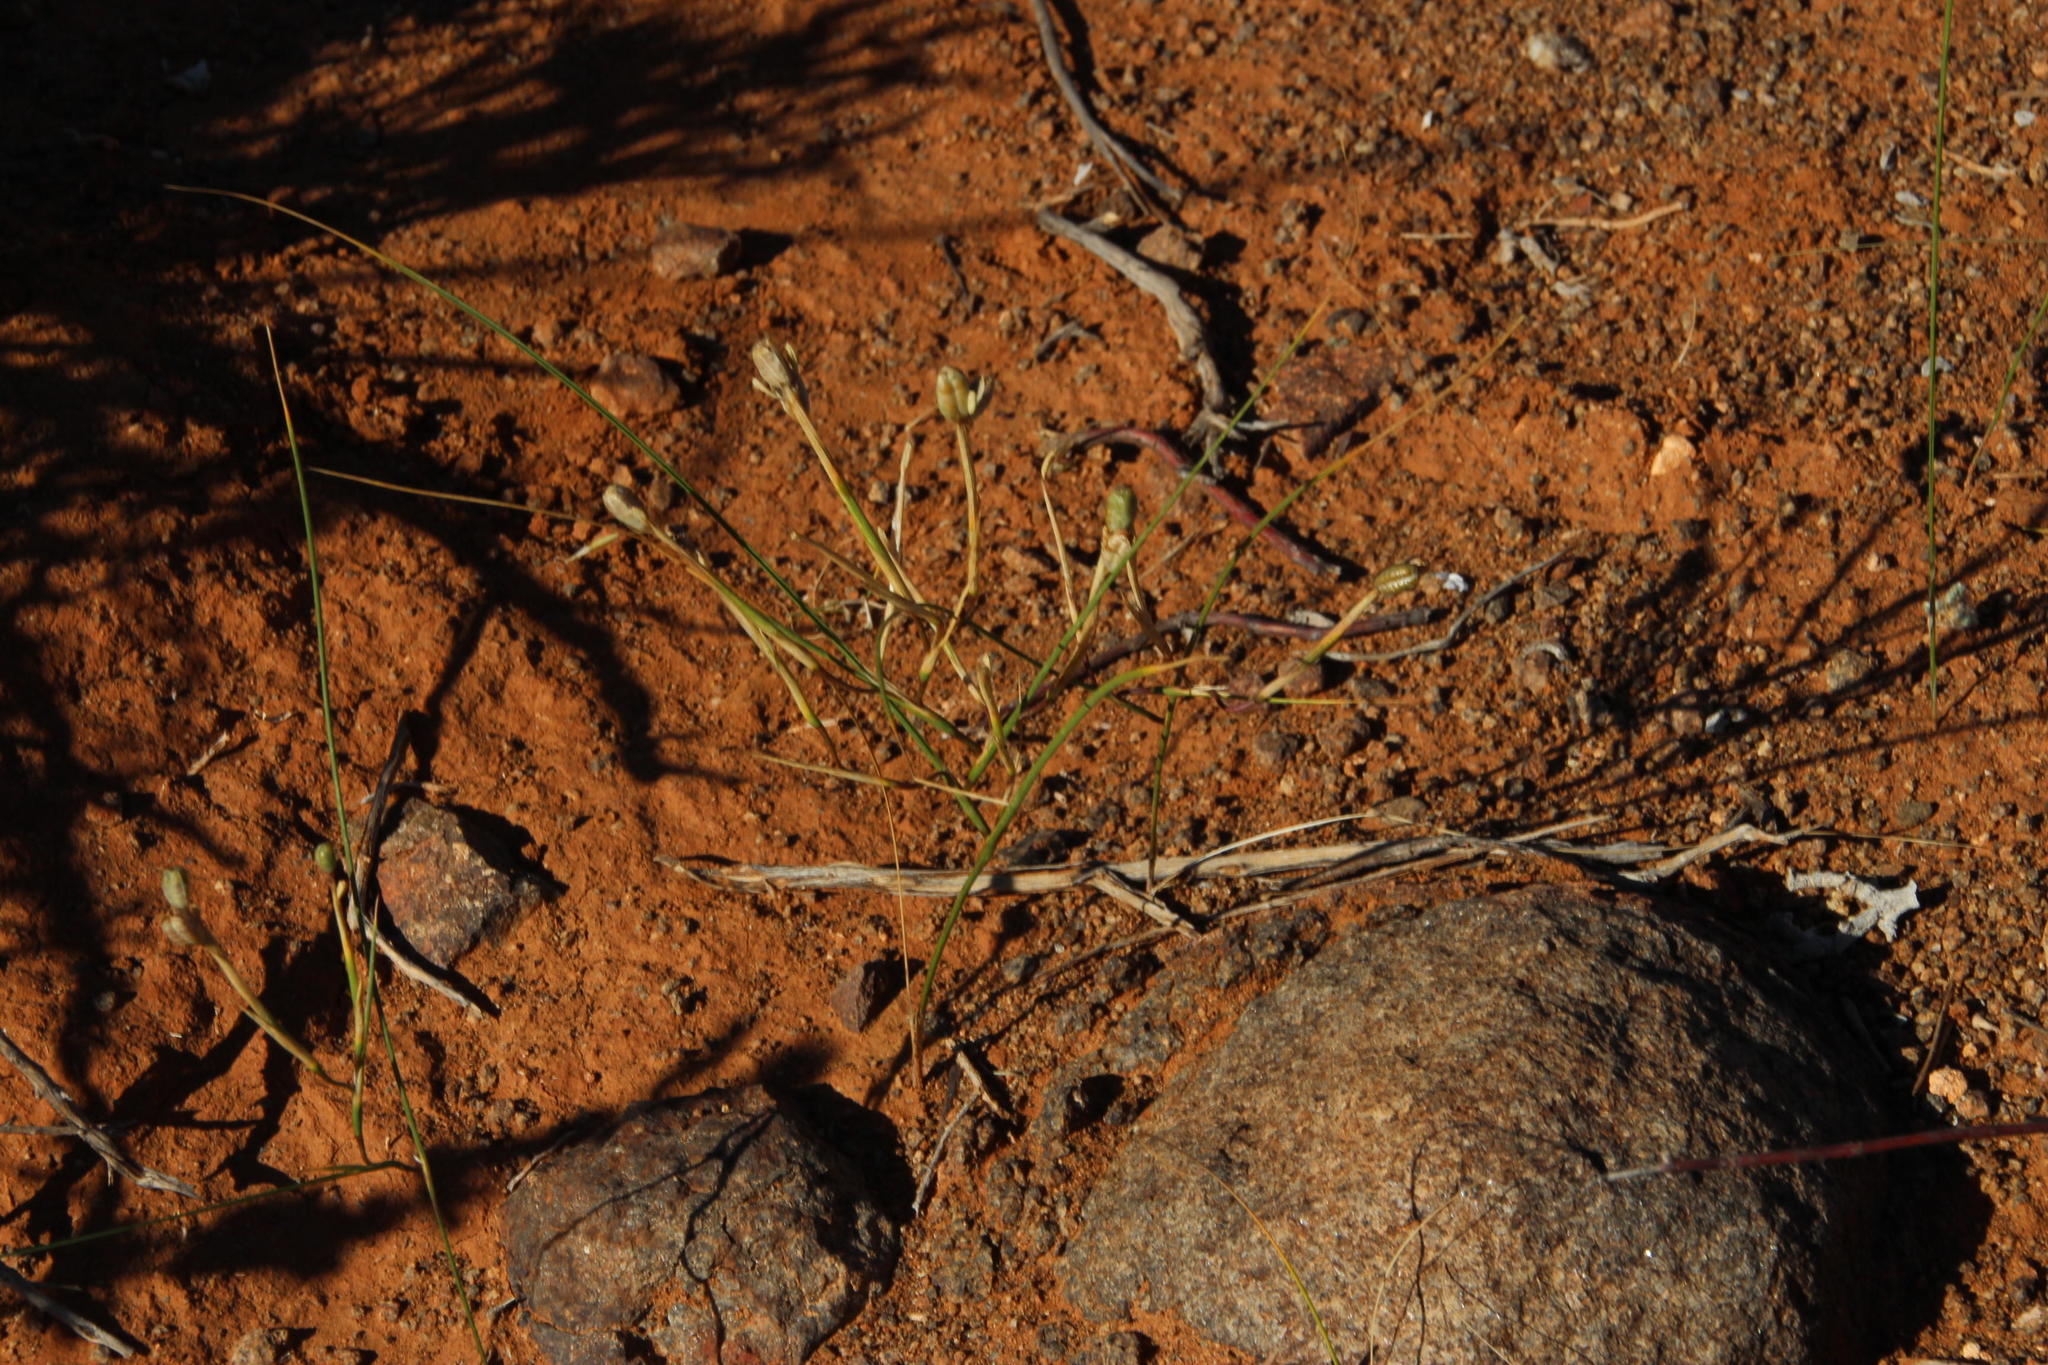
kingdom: Plantae
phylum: Tracheophyta
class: Liliopsida
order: Asparagales
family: Iridaceae
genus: Moraea
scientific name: Moraea fenestrata
